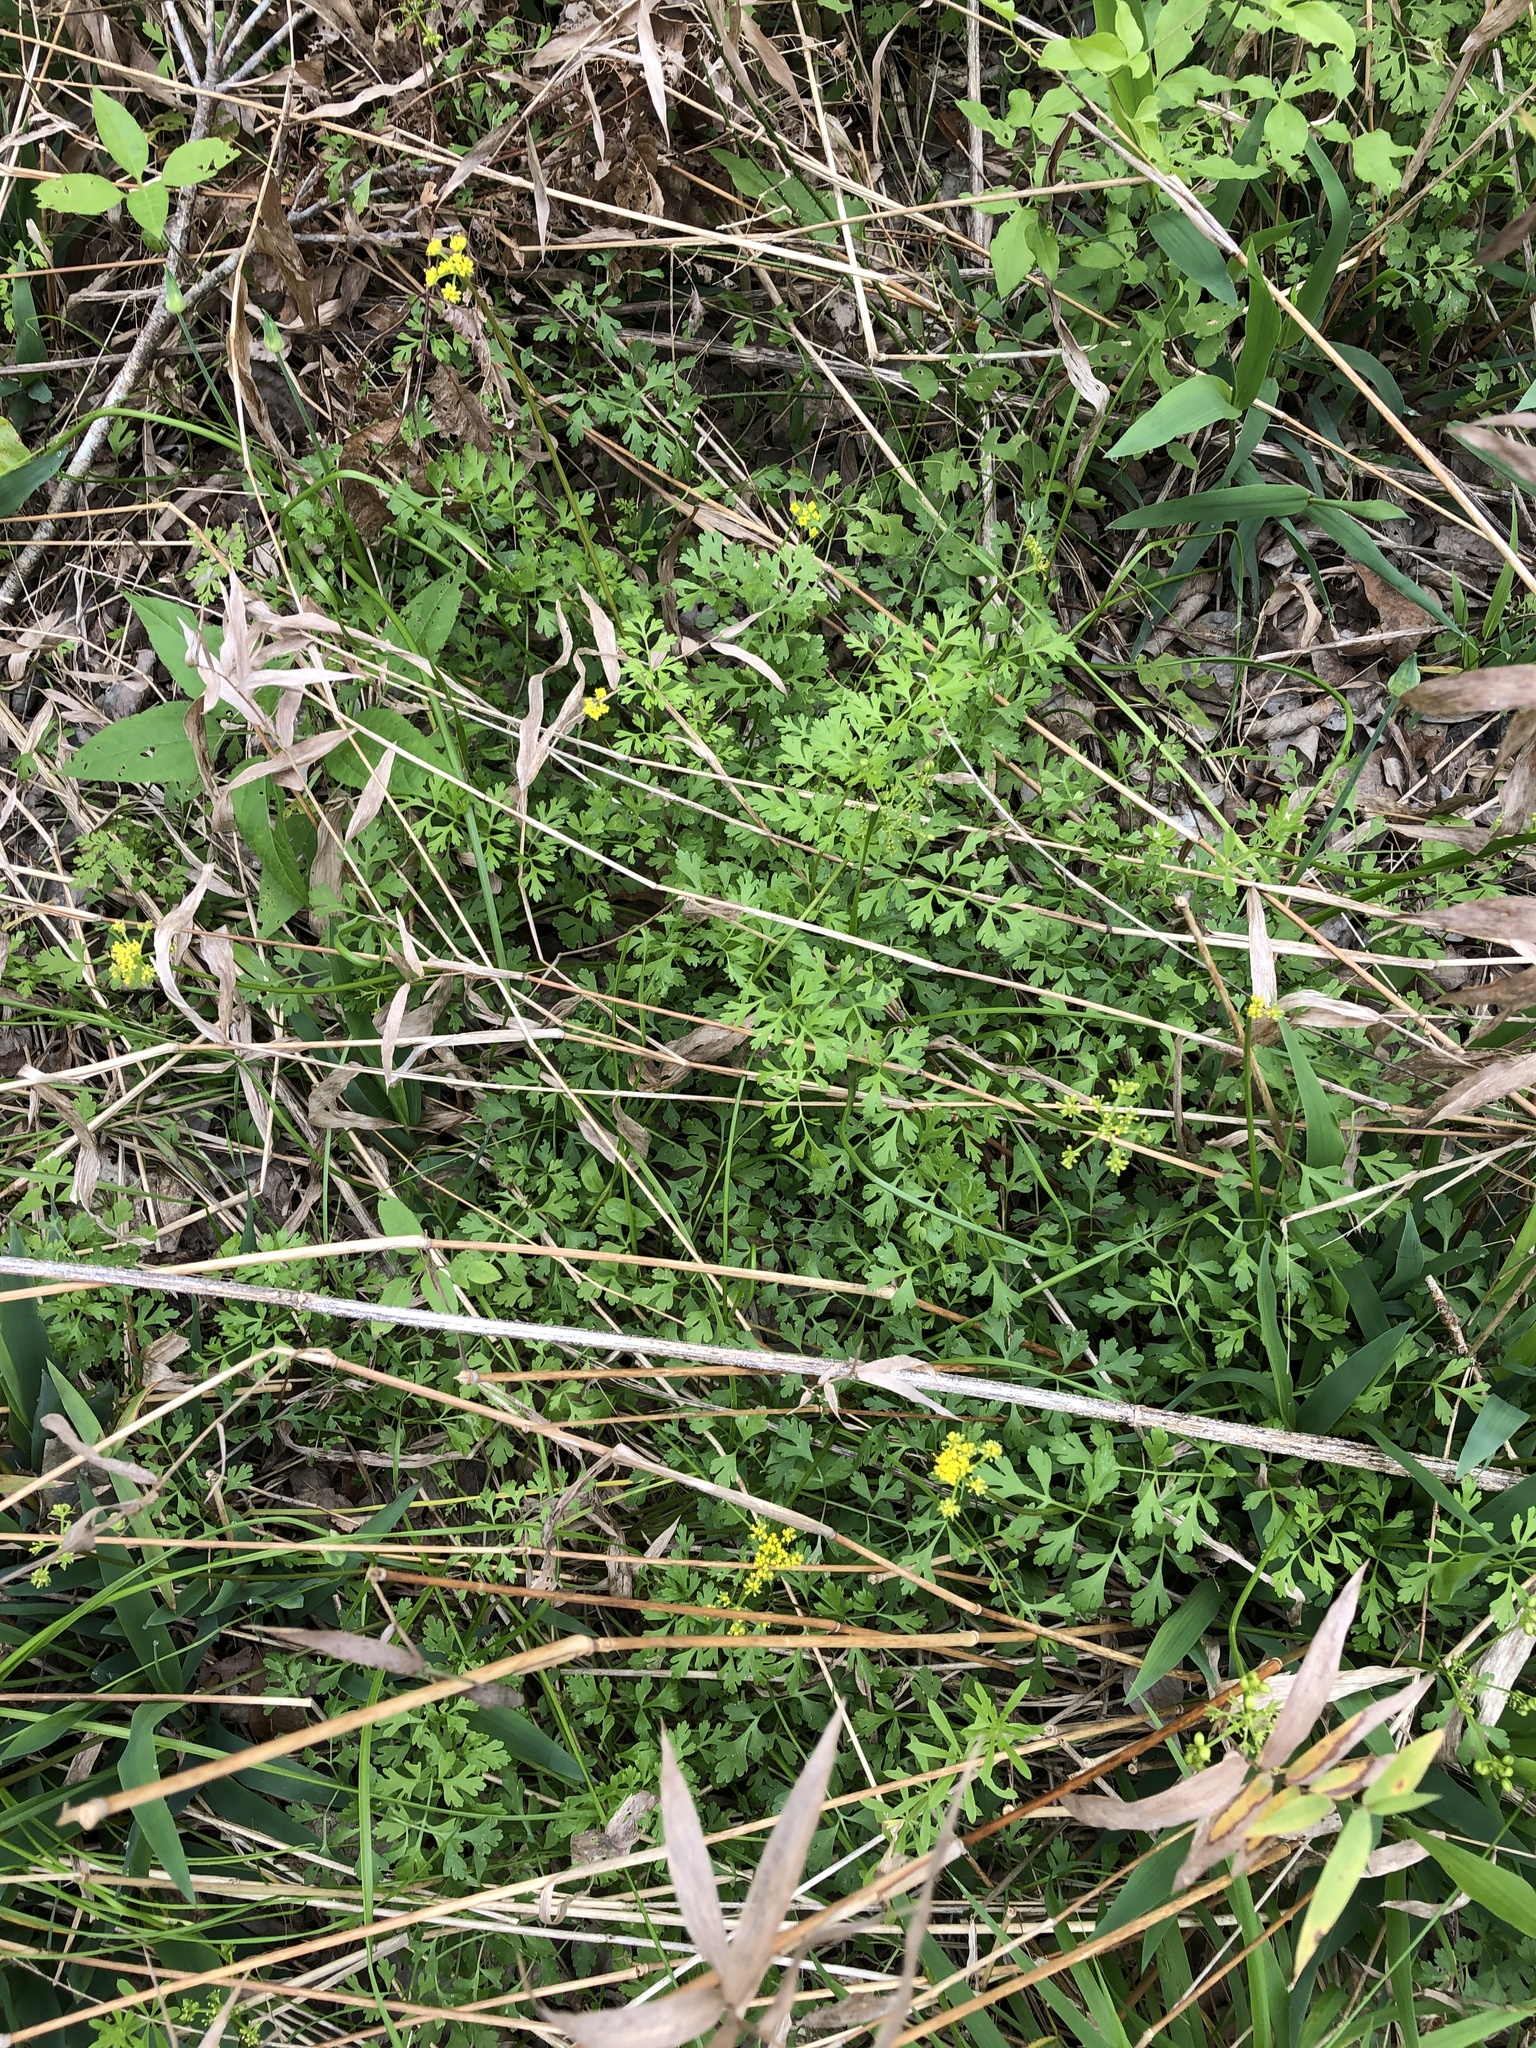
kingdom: Plantae
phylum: Tracheophyta
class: Magnoliopsida
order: Apiales
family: Apiaceae
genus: Tauschia
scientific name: Tauschia texana
